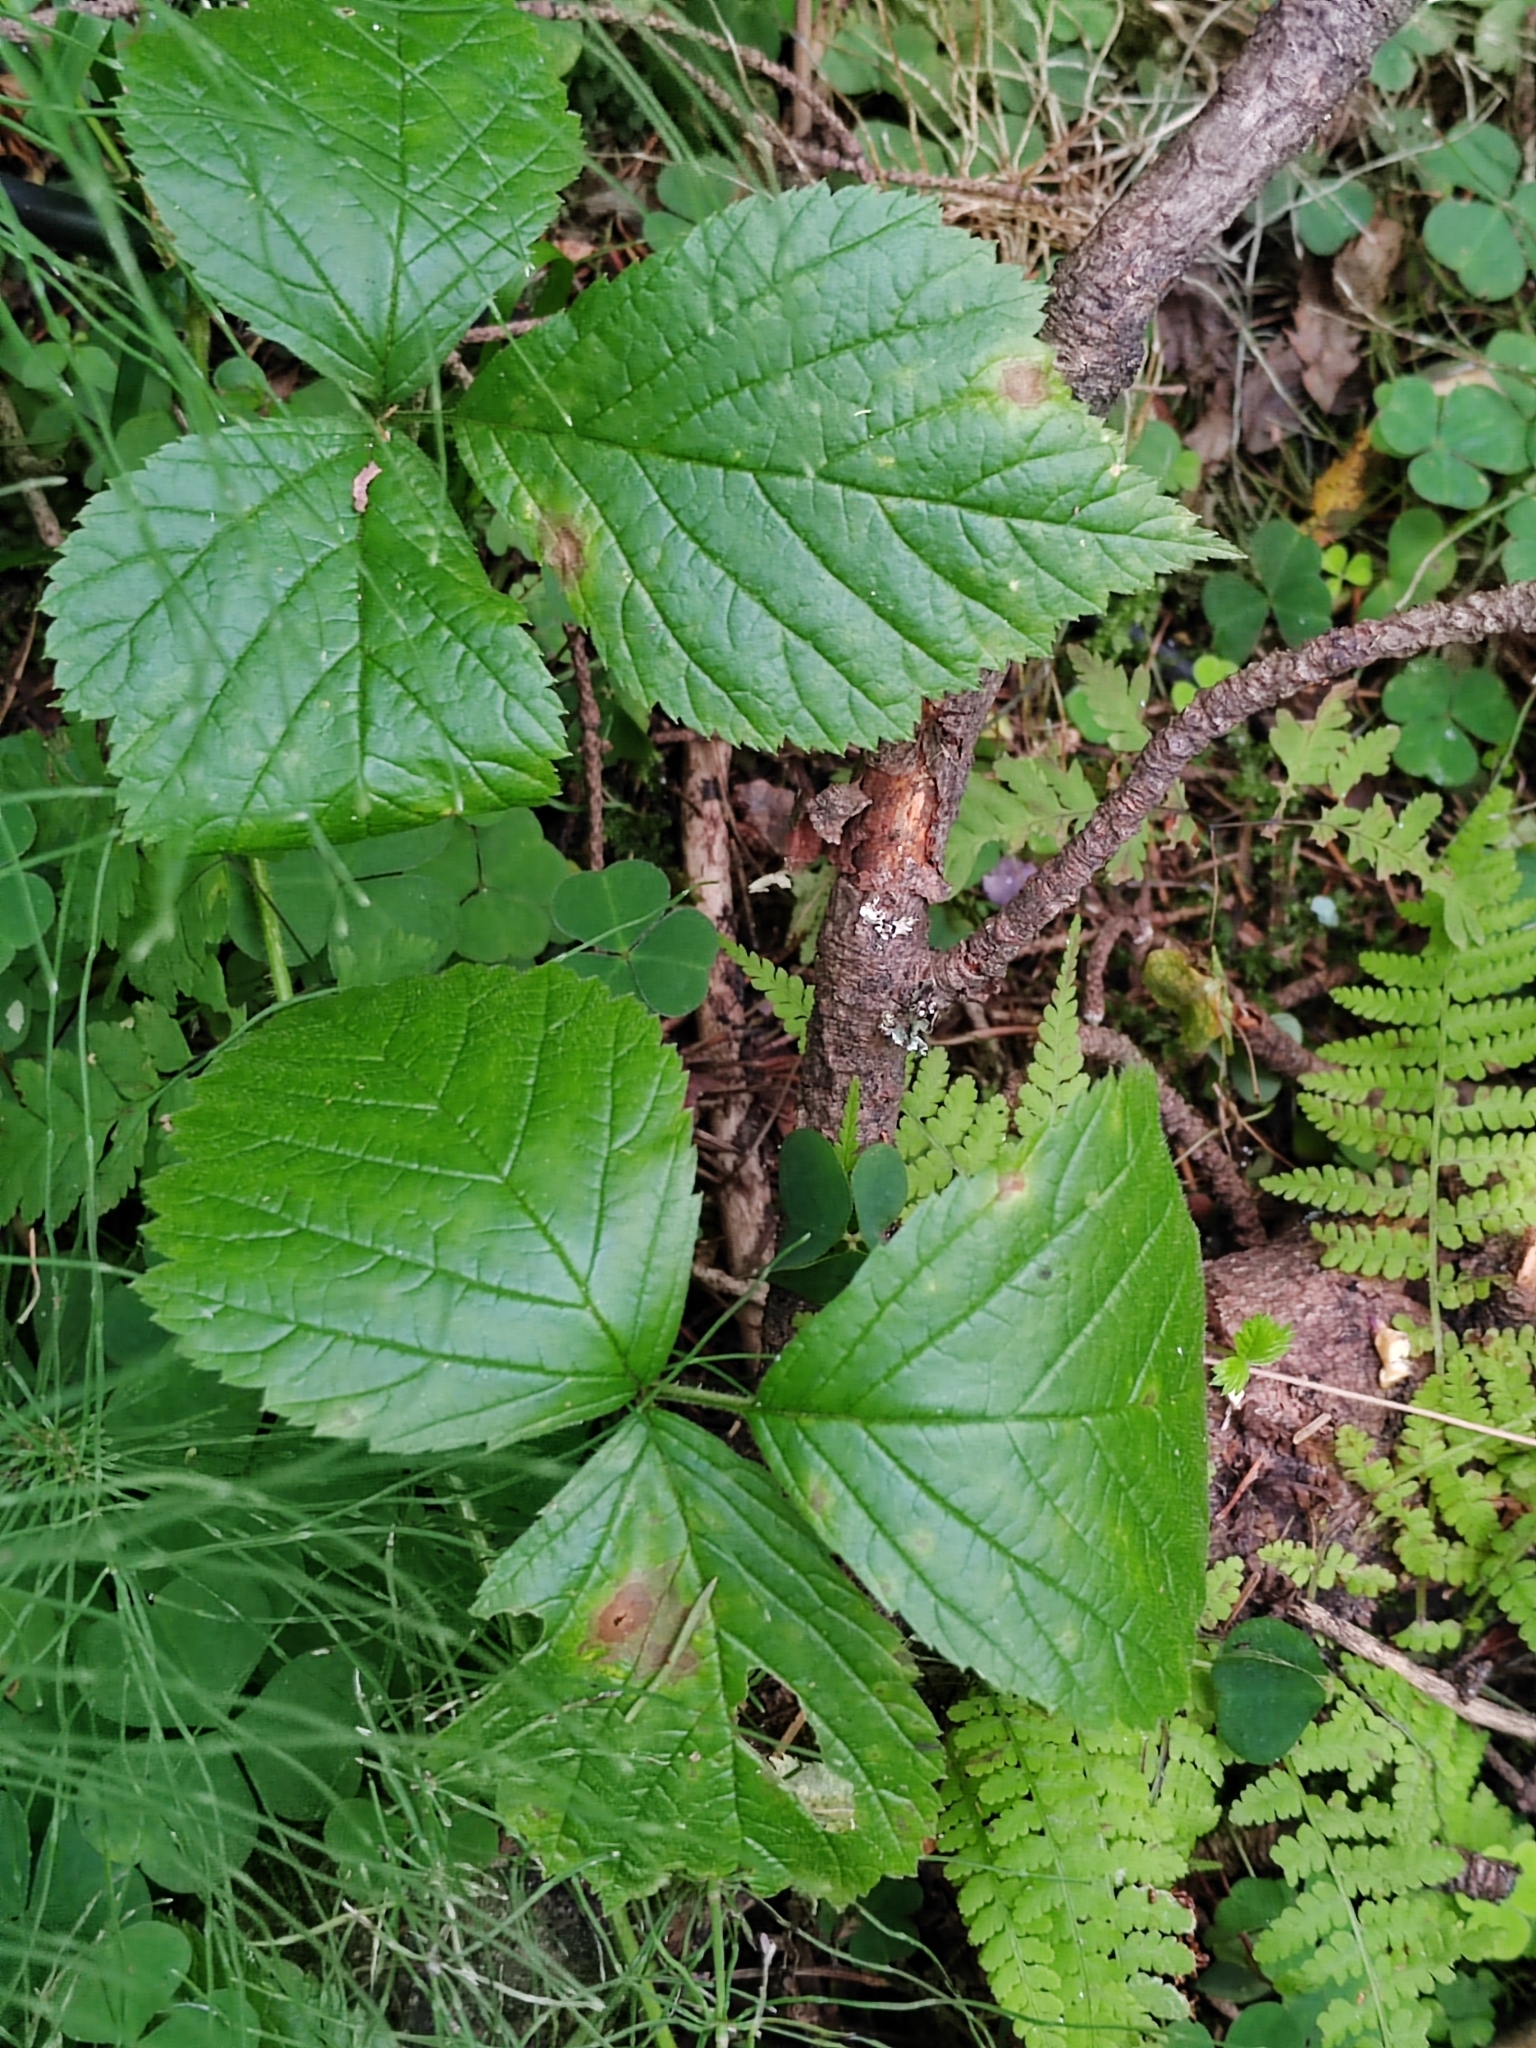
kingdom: Plantae
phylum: Tracheophyta
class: Magnoliopsida
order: Rosales
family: Rosaceae
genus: Rubus
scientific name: Rubus saxatilis
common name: Stone bramble
